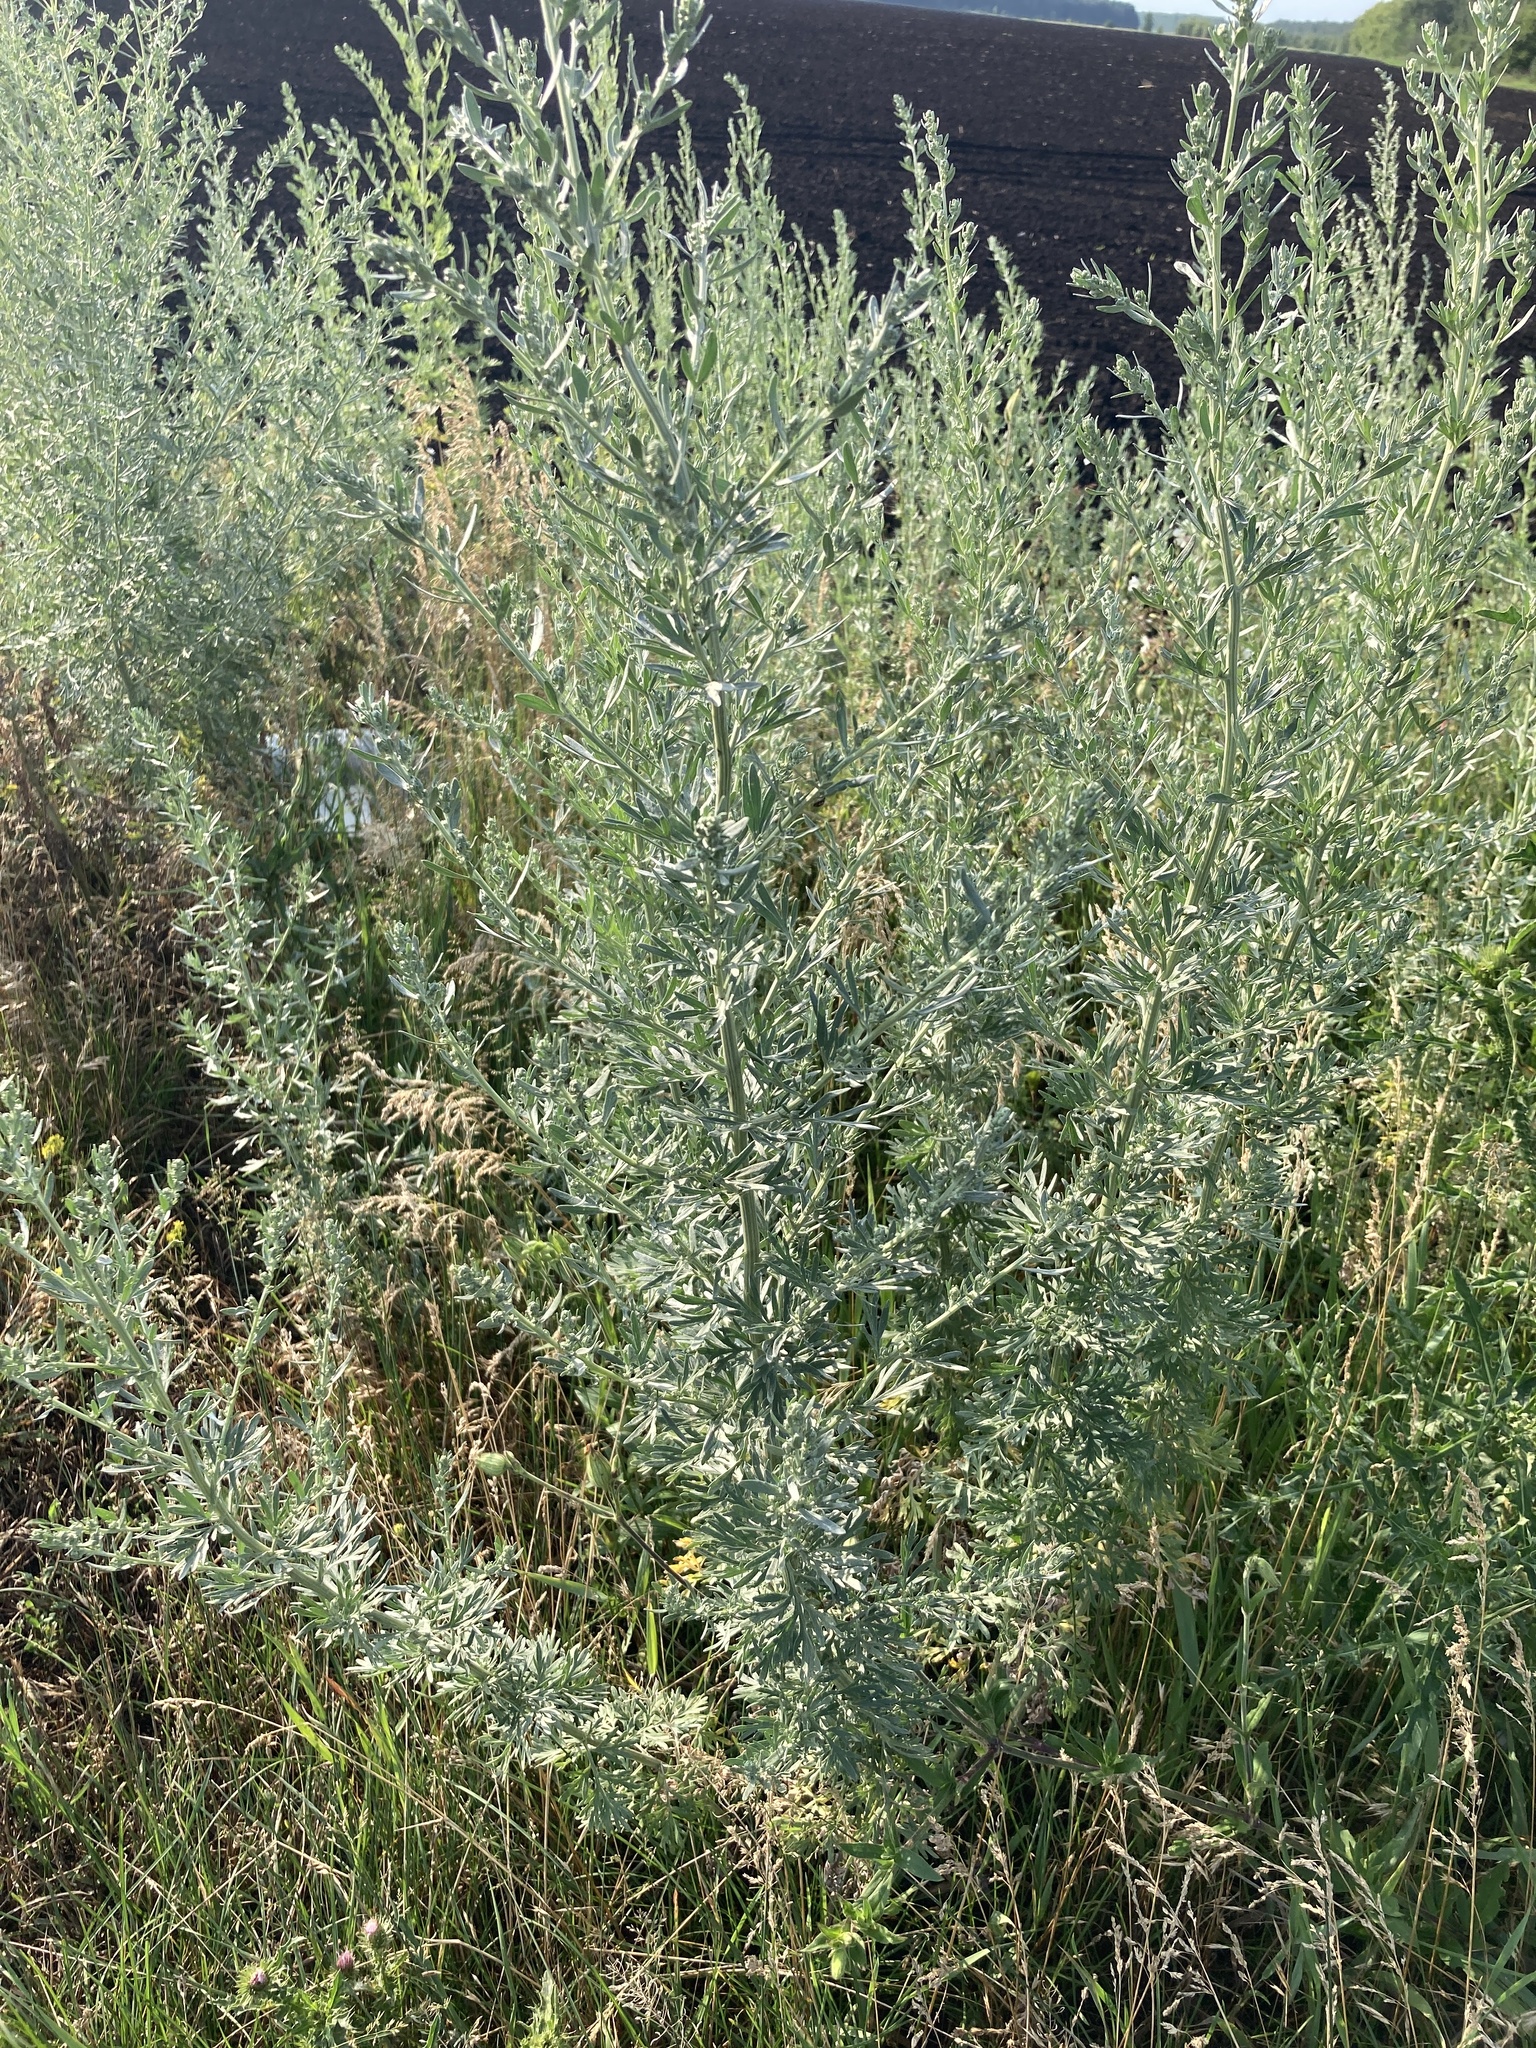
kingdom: Plantae
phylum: Tracheophyta
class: Magnoliopsida
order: Asterales
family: Asteraceae
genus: Artemisia
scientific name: Artemisia absinthium
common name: Wormwood
